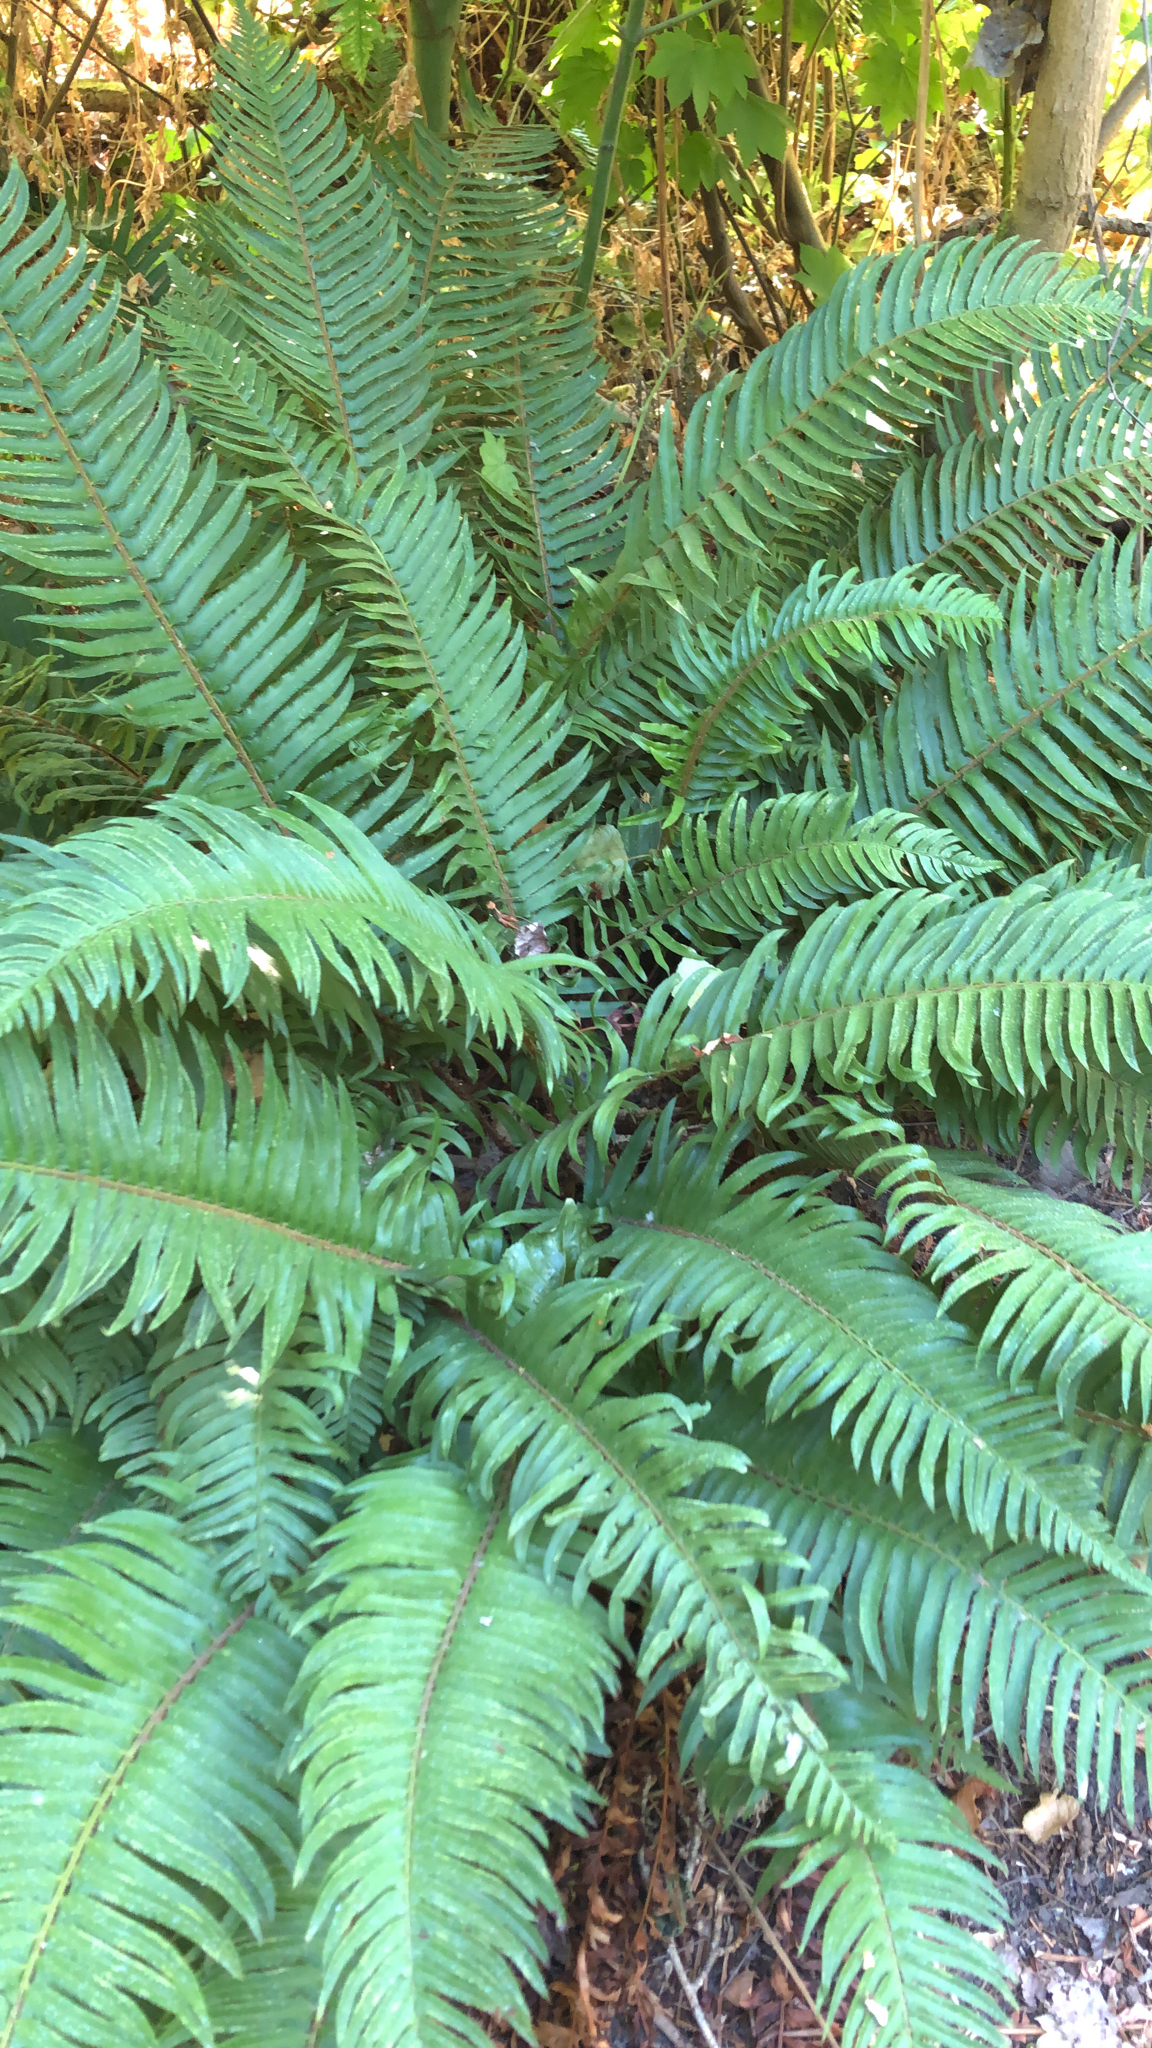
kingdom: Plantae
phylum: Tracheophyta
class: Polypodiopsida
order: Polypodiales
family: Dryopteridaceae
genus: Polystichum
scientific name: Polystichum munitum
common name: Western sword-fern
